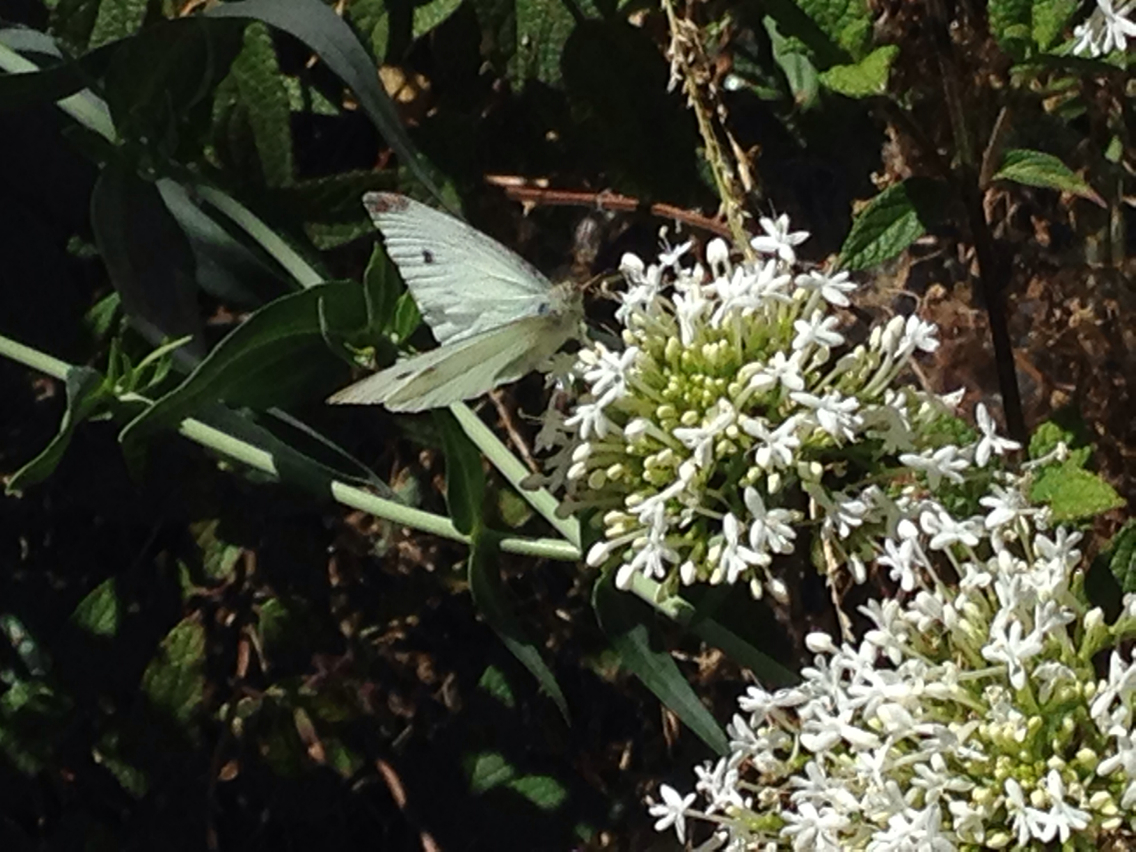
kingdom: Animalia
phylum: Arthropoda
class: Insecta
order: Lepidoptera
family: Pieridae
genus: Pieris
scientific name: Pieris rapae
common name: Small white
